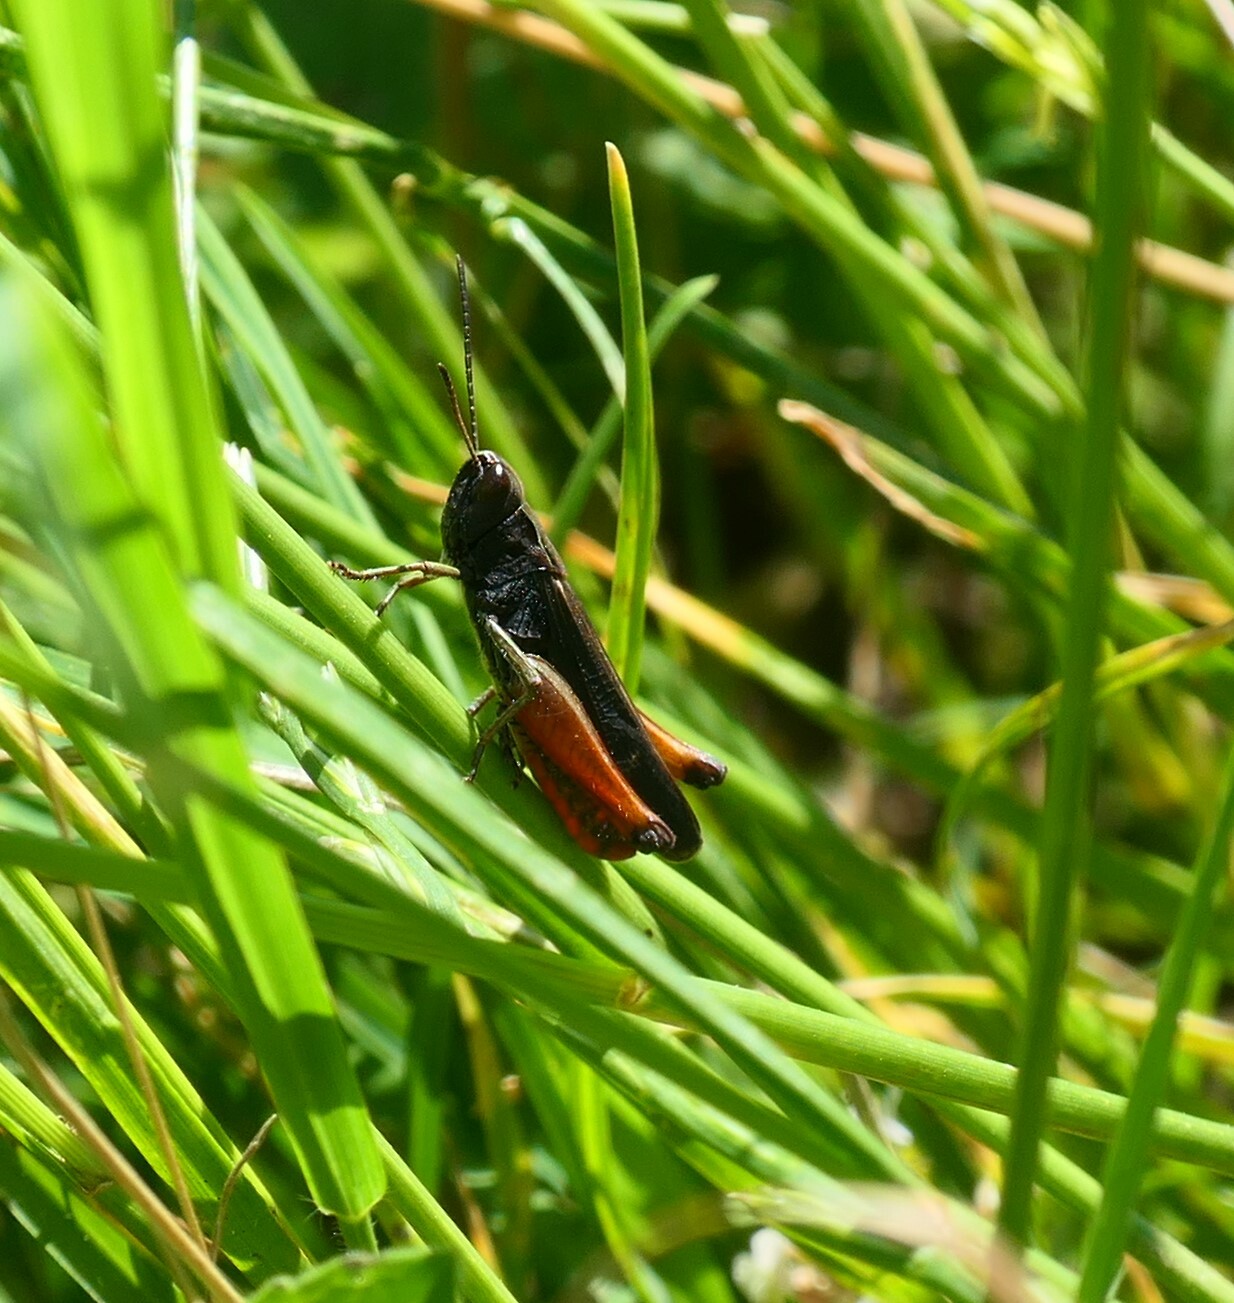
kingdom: Animalia
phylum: Arthropoda
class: Insecta
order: Orthoptera
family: Acrididae
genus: Omocestus
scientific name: Omocestus rufipes
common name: Woodland grasshopper
